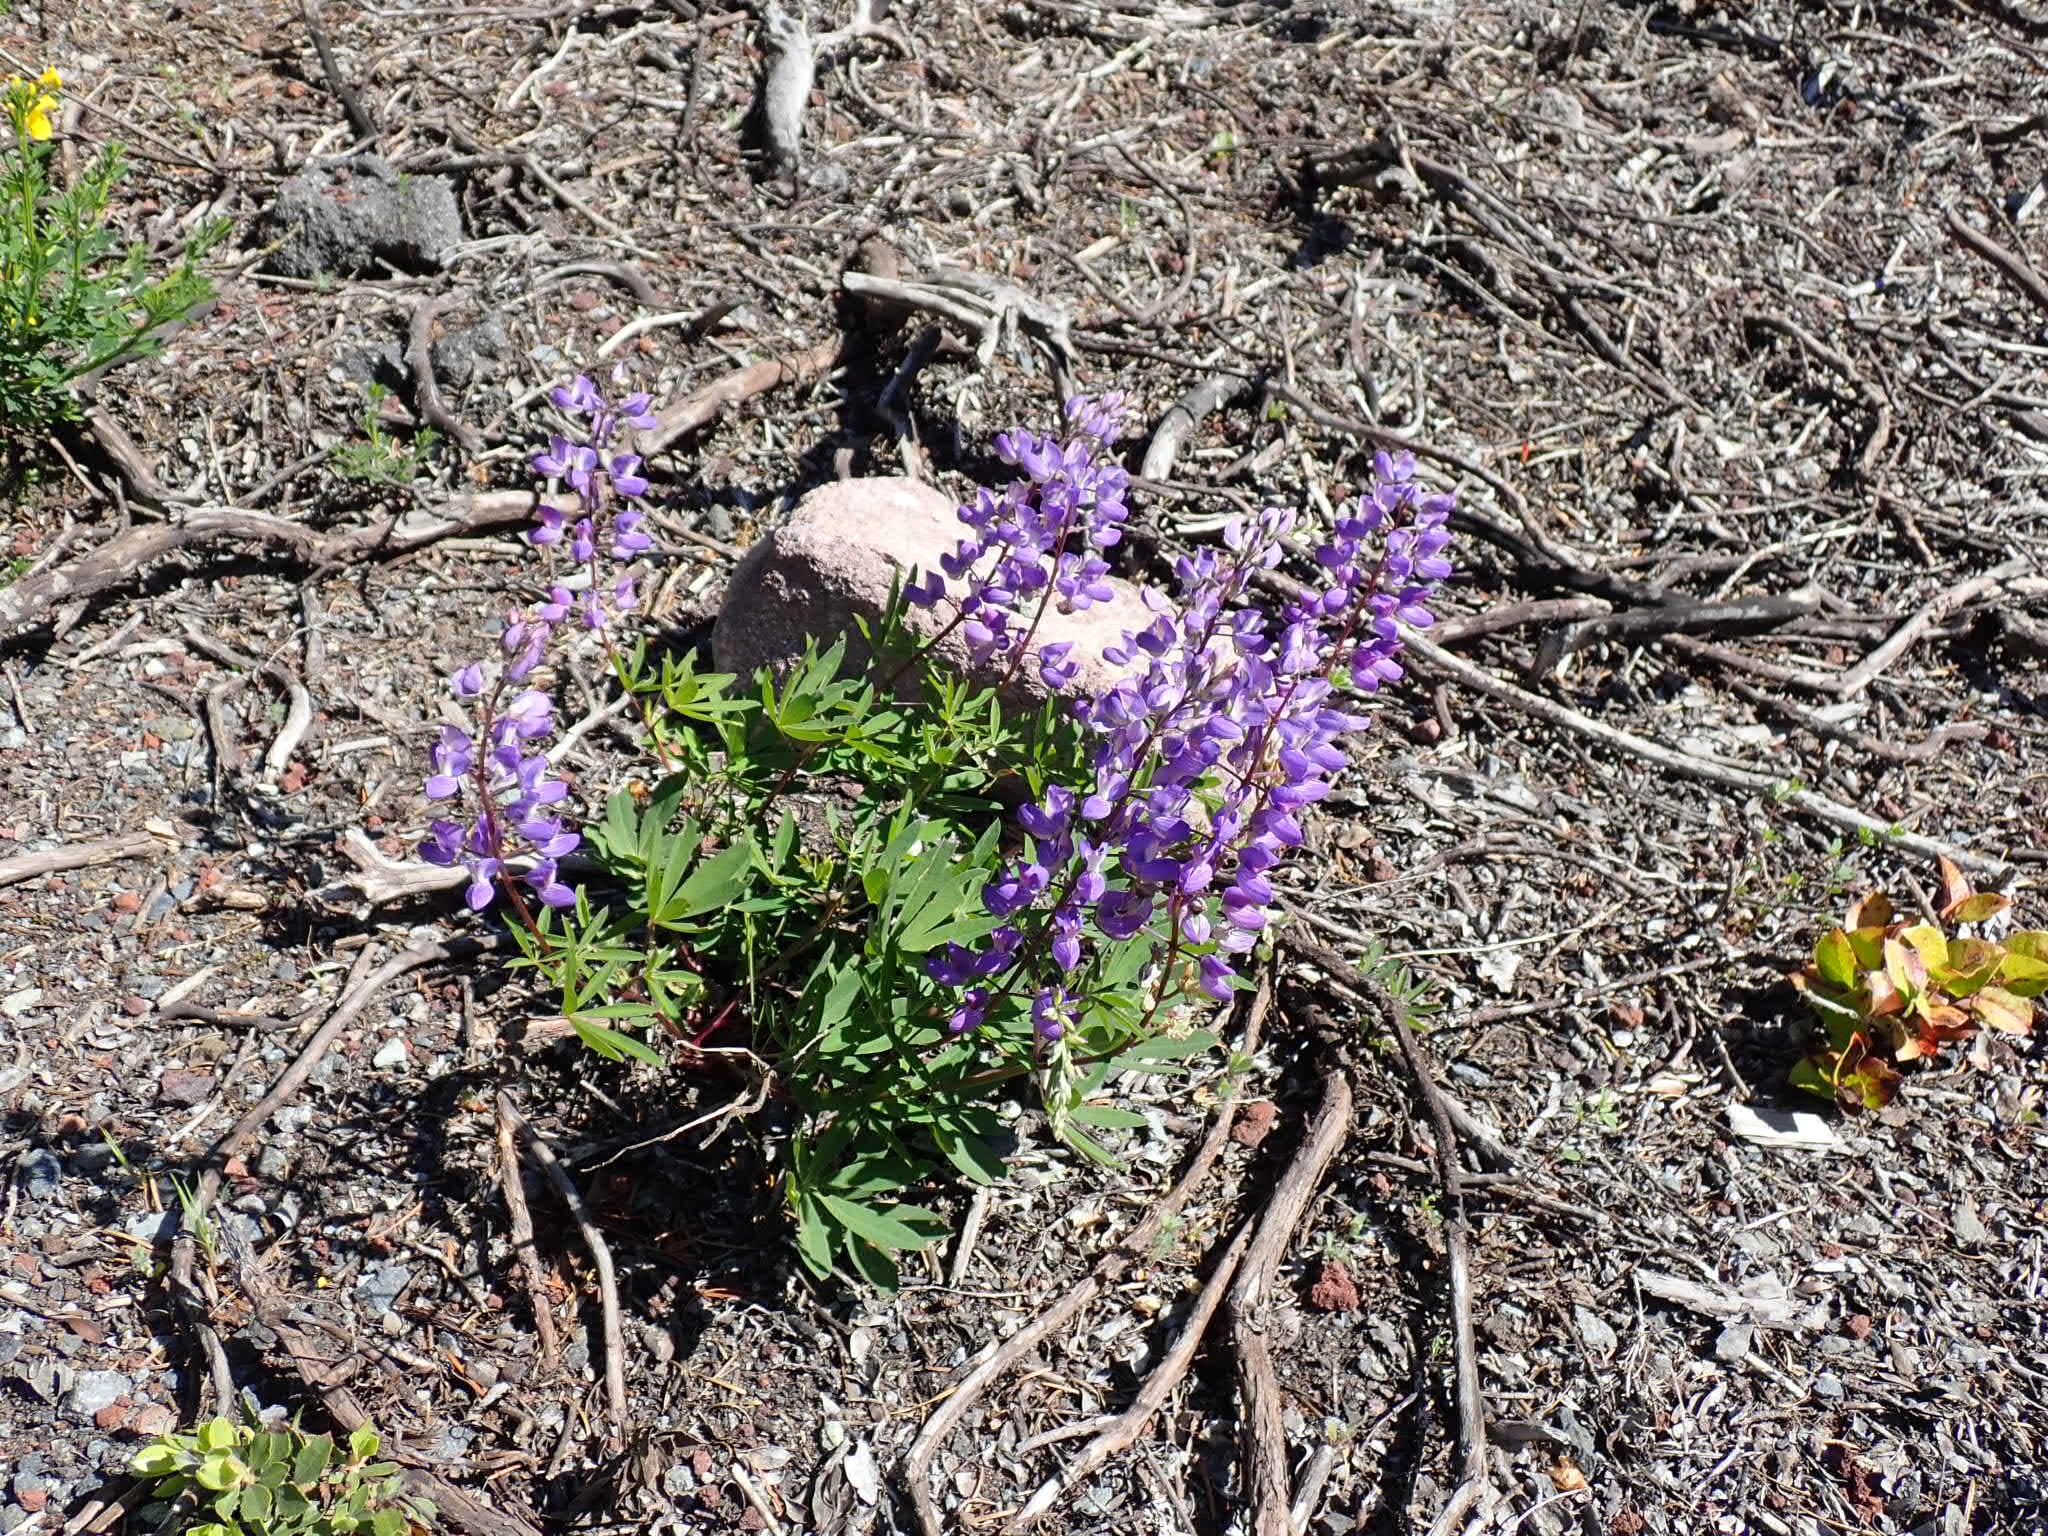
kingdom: Plantae
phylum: Tracheophyta
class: Magnoliopsida
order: Fabales
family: Fabaceae
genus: Lupinus
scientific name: Lupinus latifolius
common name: Broad-leaved lupine
